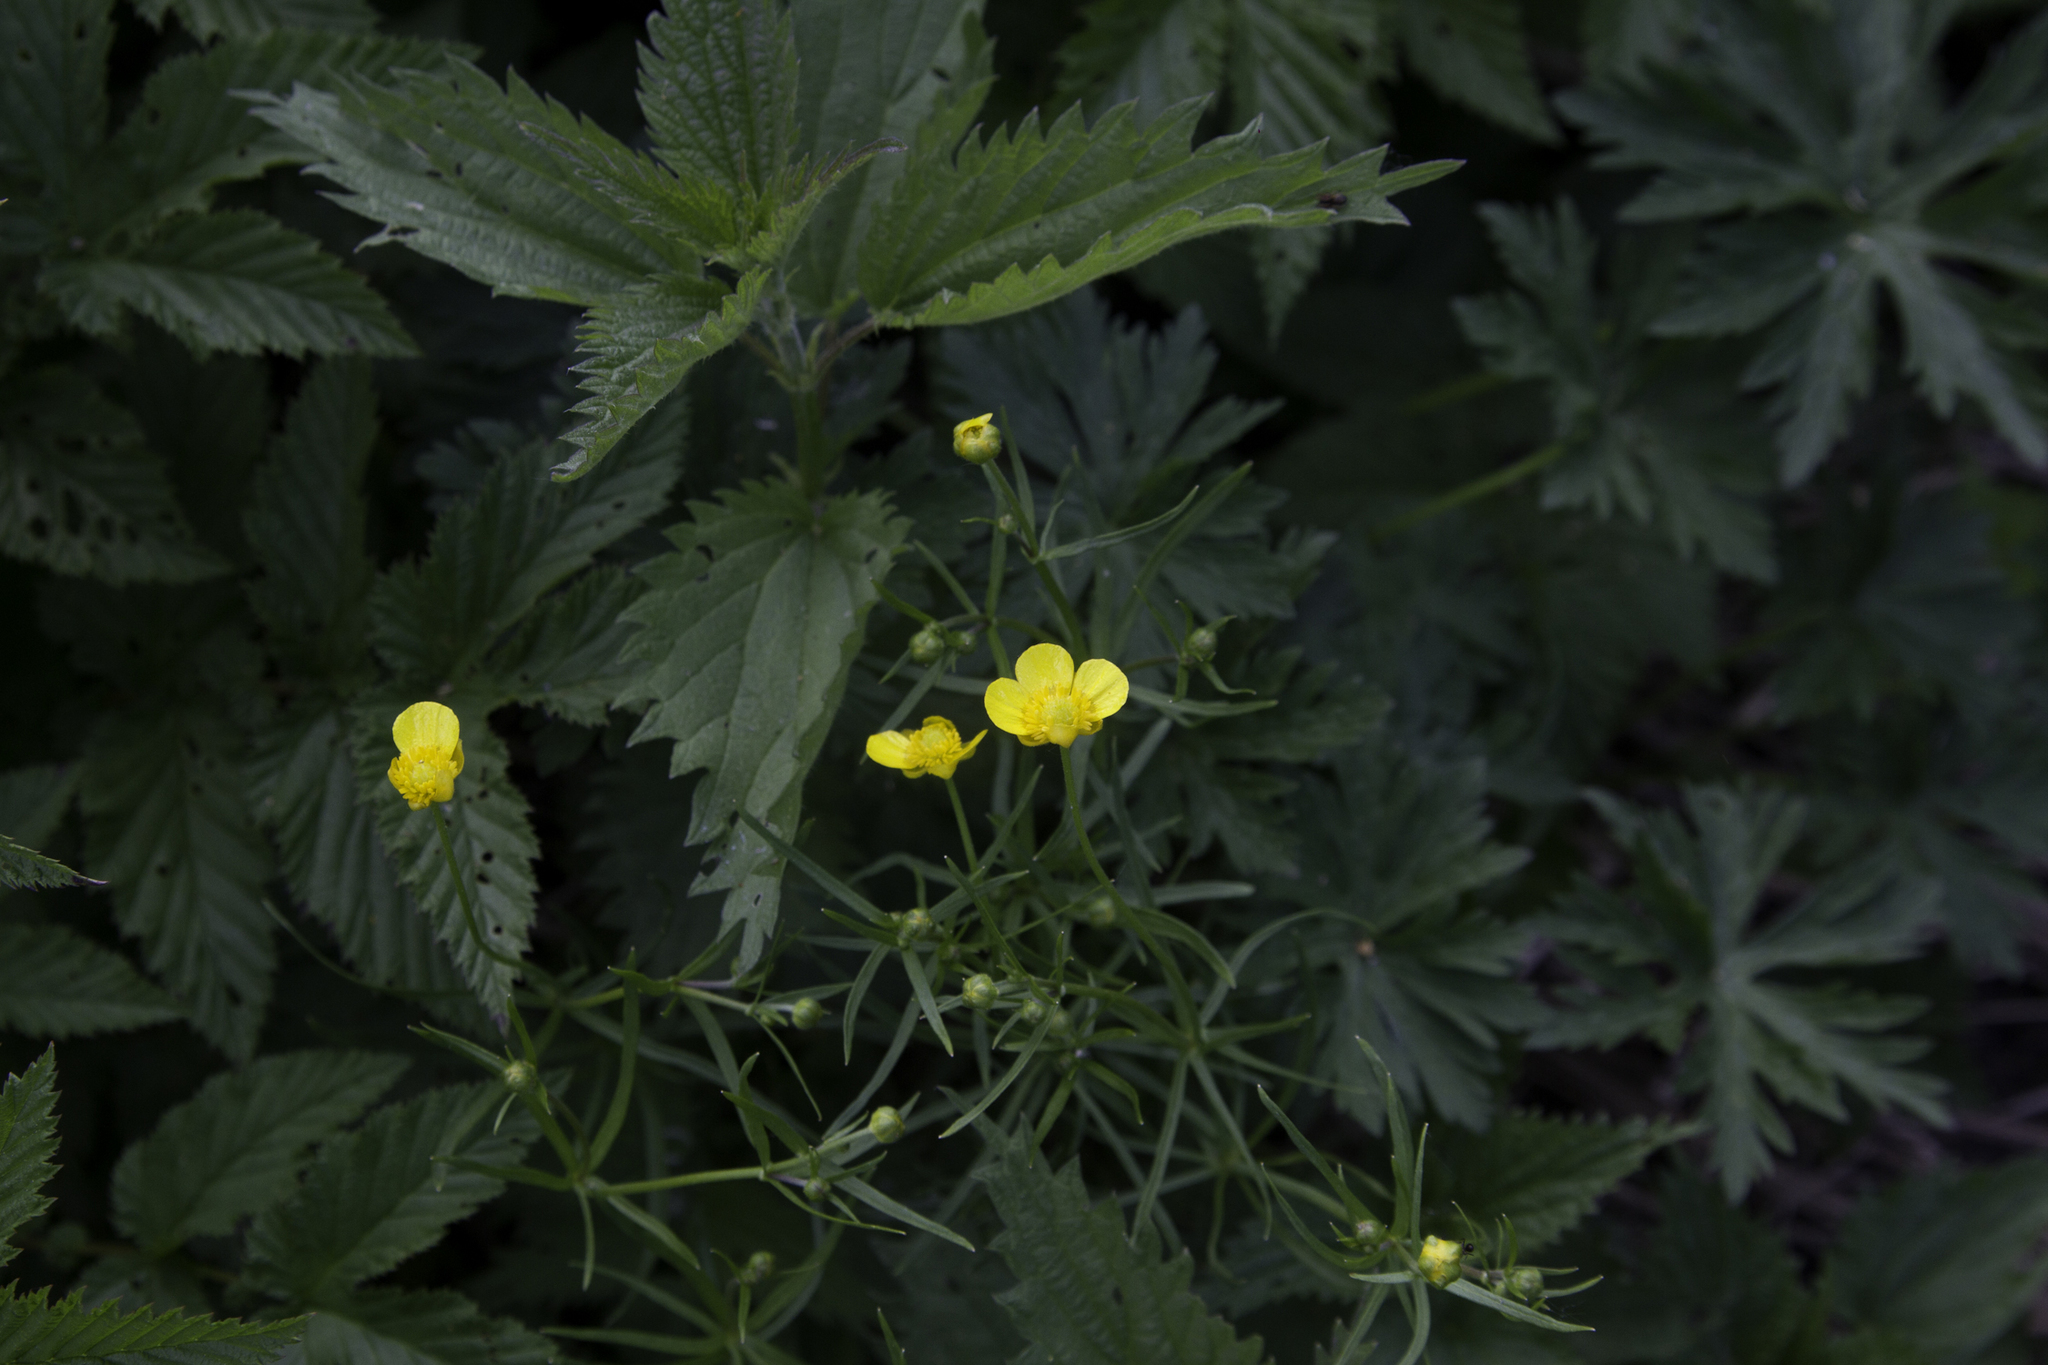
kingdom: Plantae
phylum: Tracheophyta
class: Magnoliopsida
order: Ranunculales
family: Ranunculaceae
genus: Ranunculus
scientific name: Ranunculus auricomus
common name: Goldilocks buttercup
